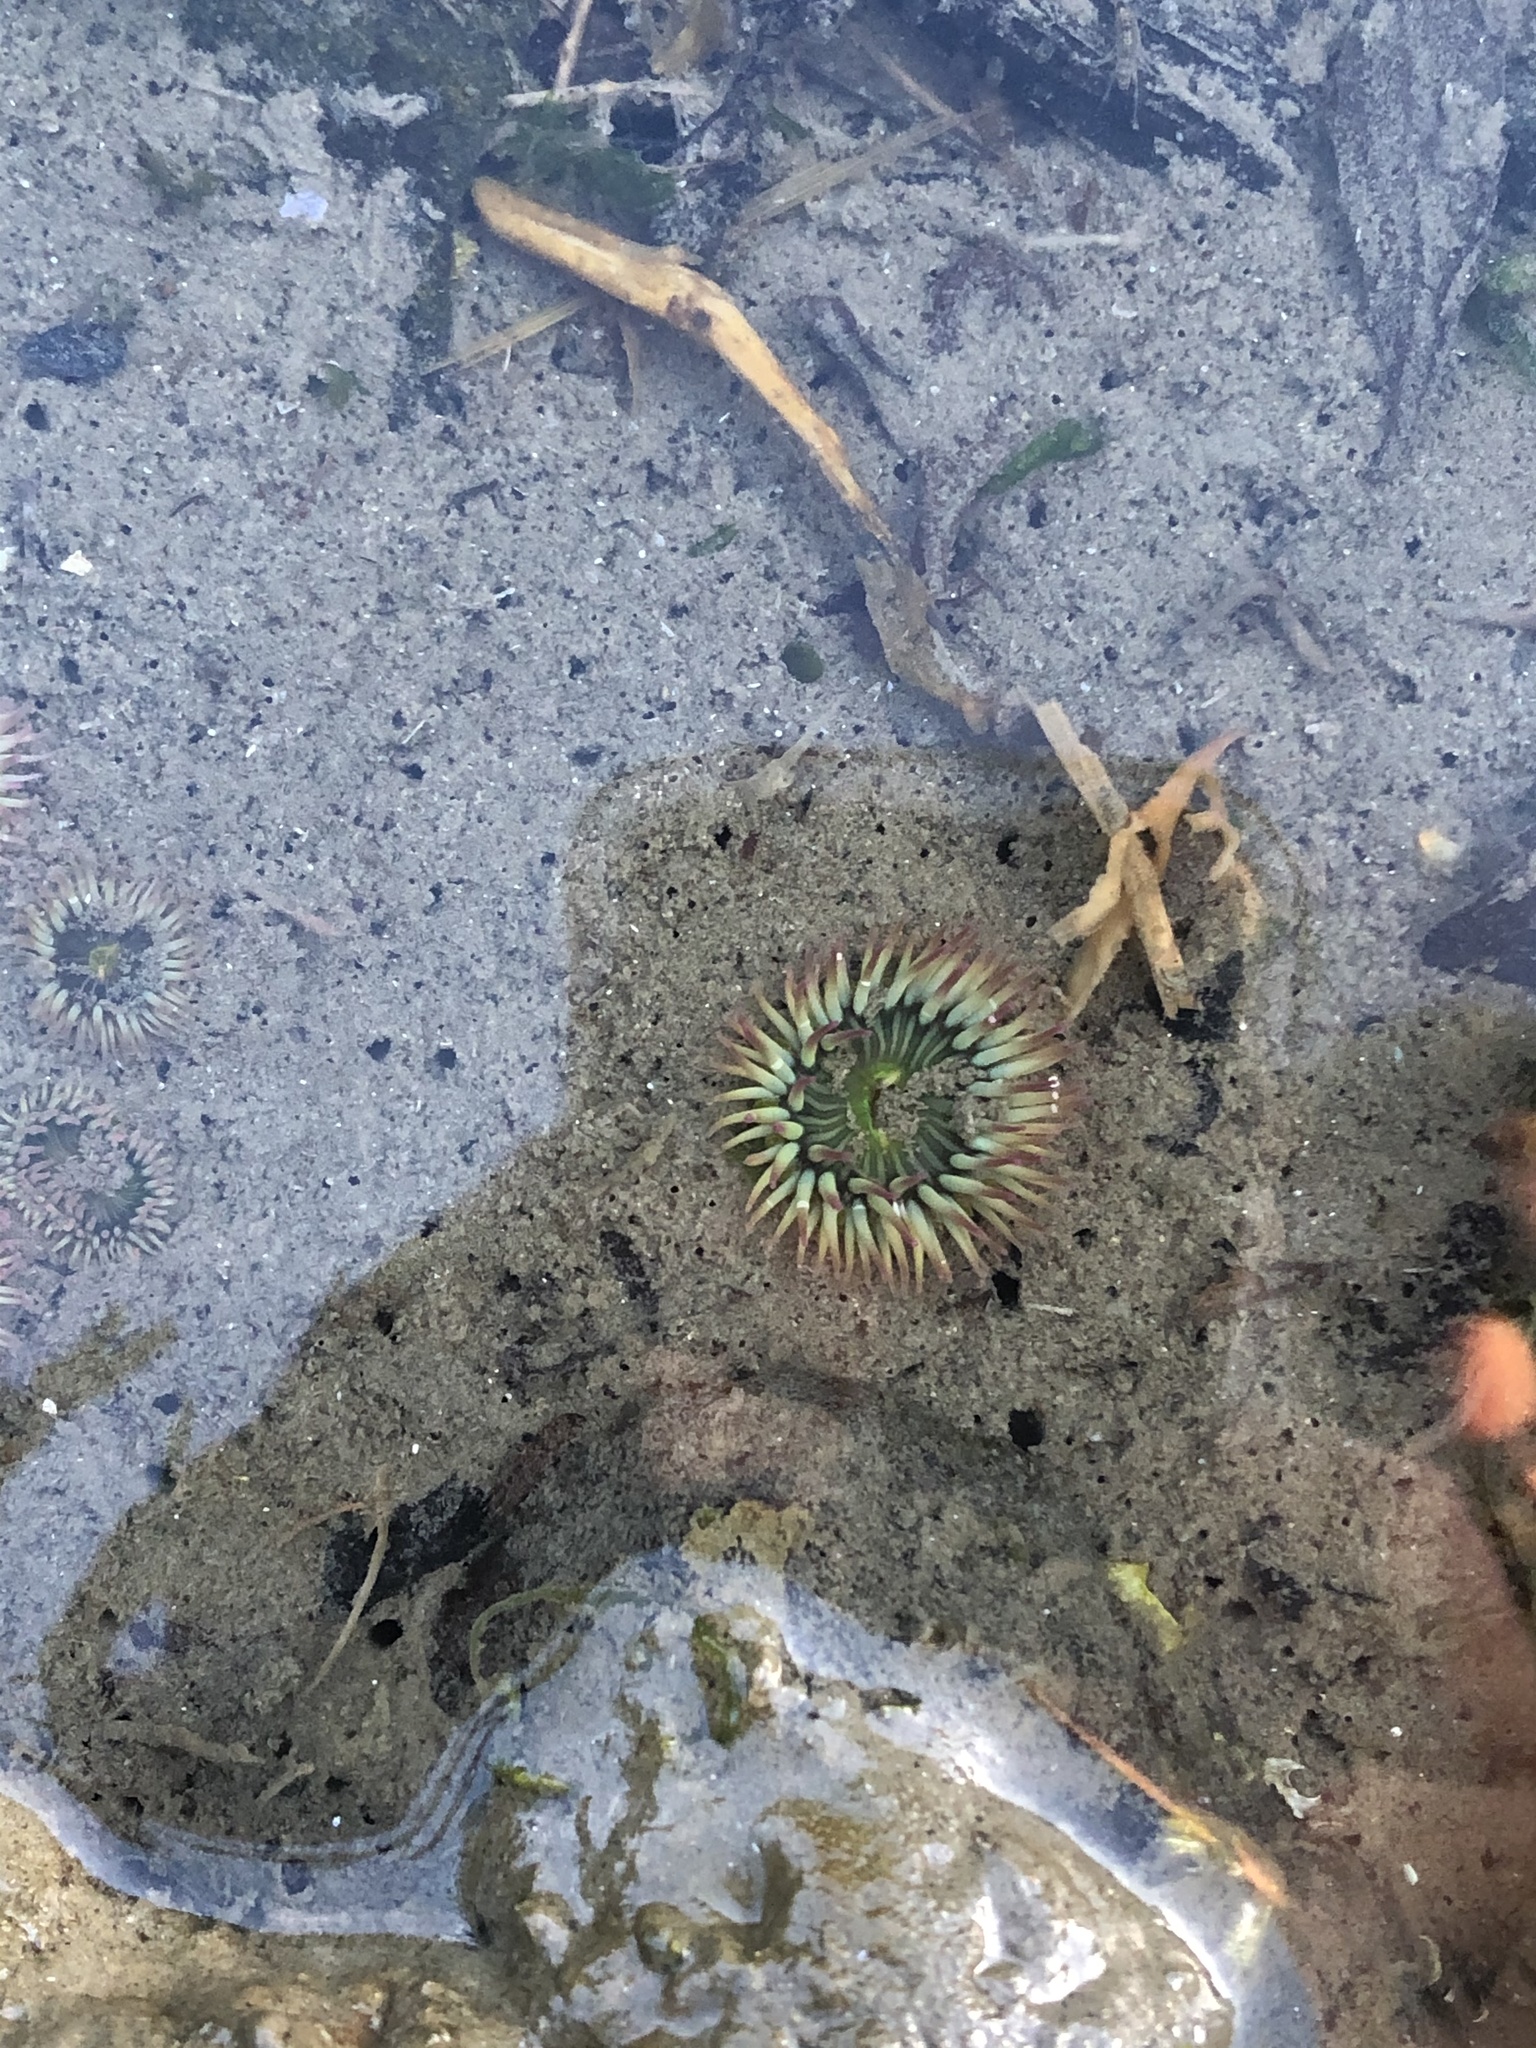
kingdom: Animalia
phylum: Cnidaria
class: Anthozoa
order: Actiniaria
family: Actiniidae
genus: Anthopleura
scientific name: Anthopleura elegantissima
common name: Clonal anemone
